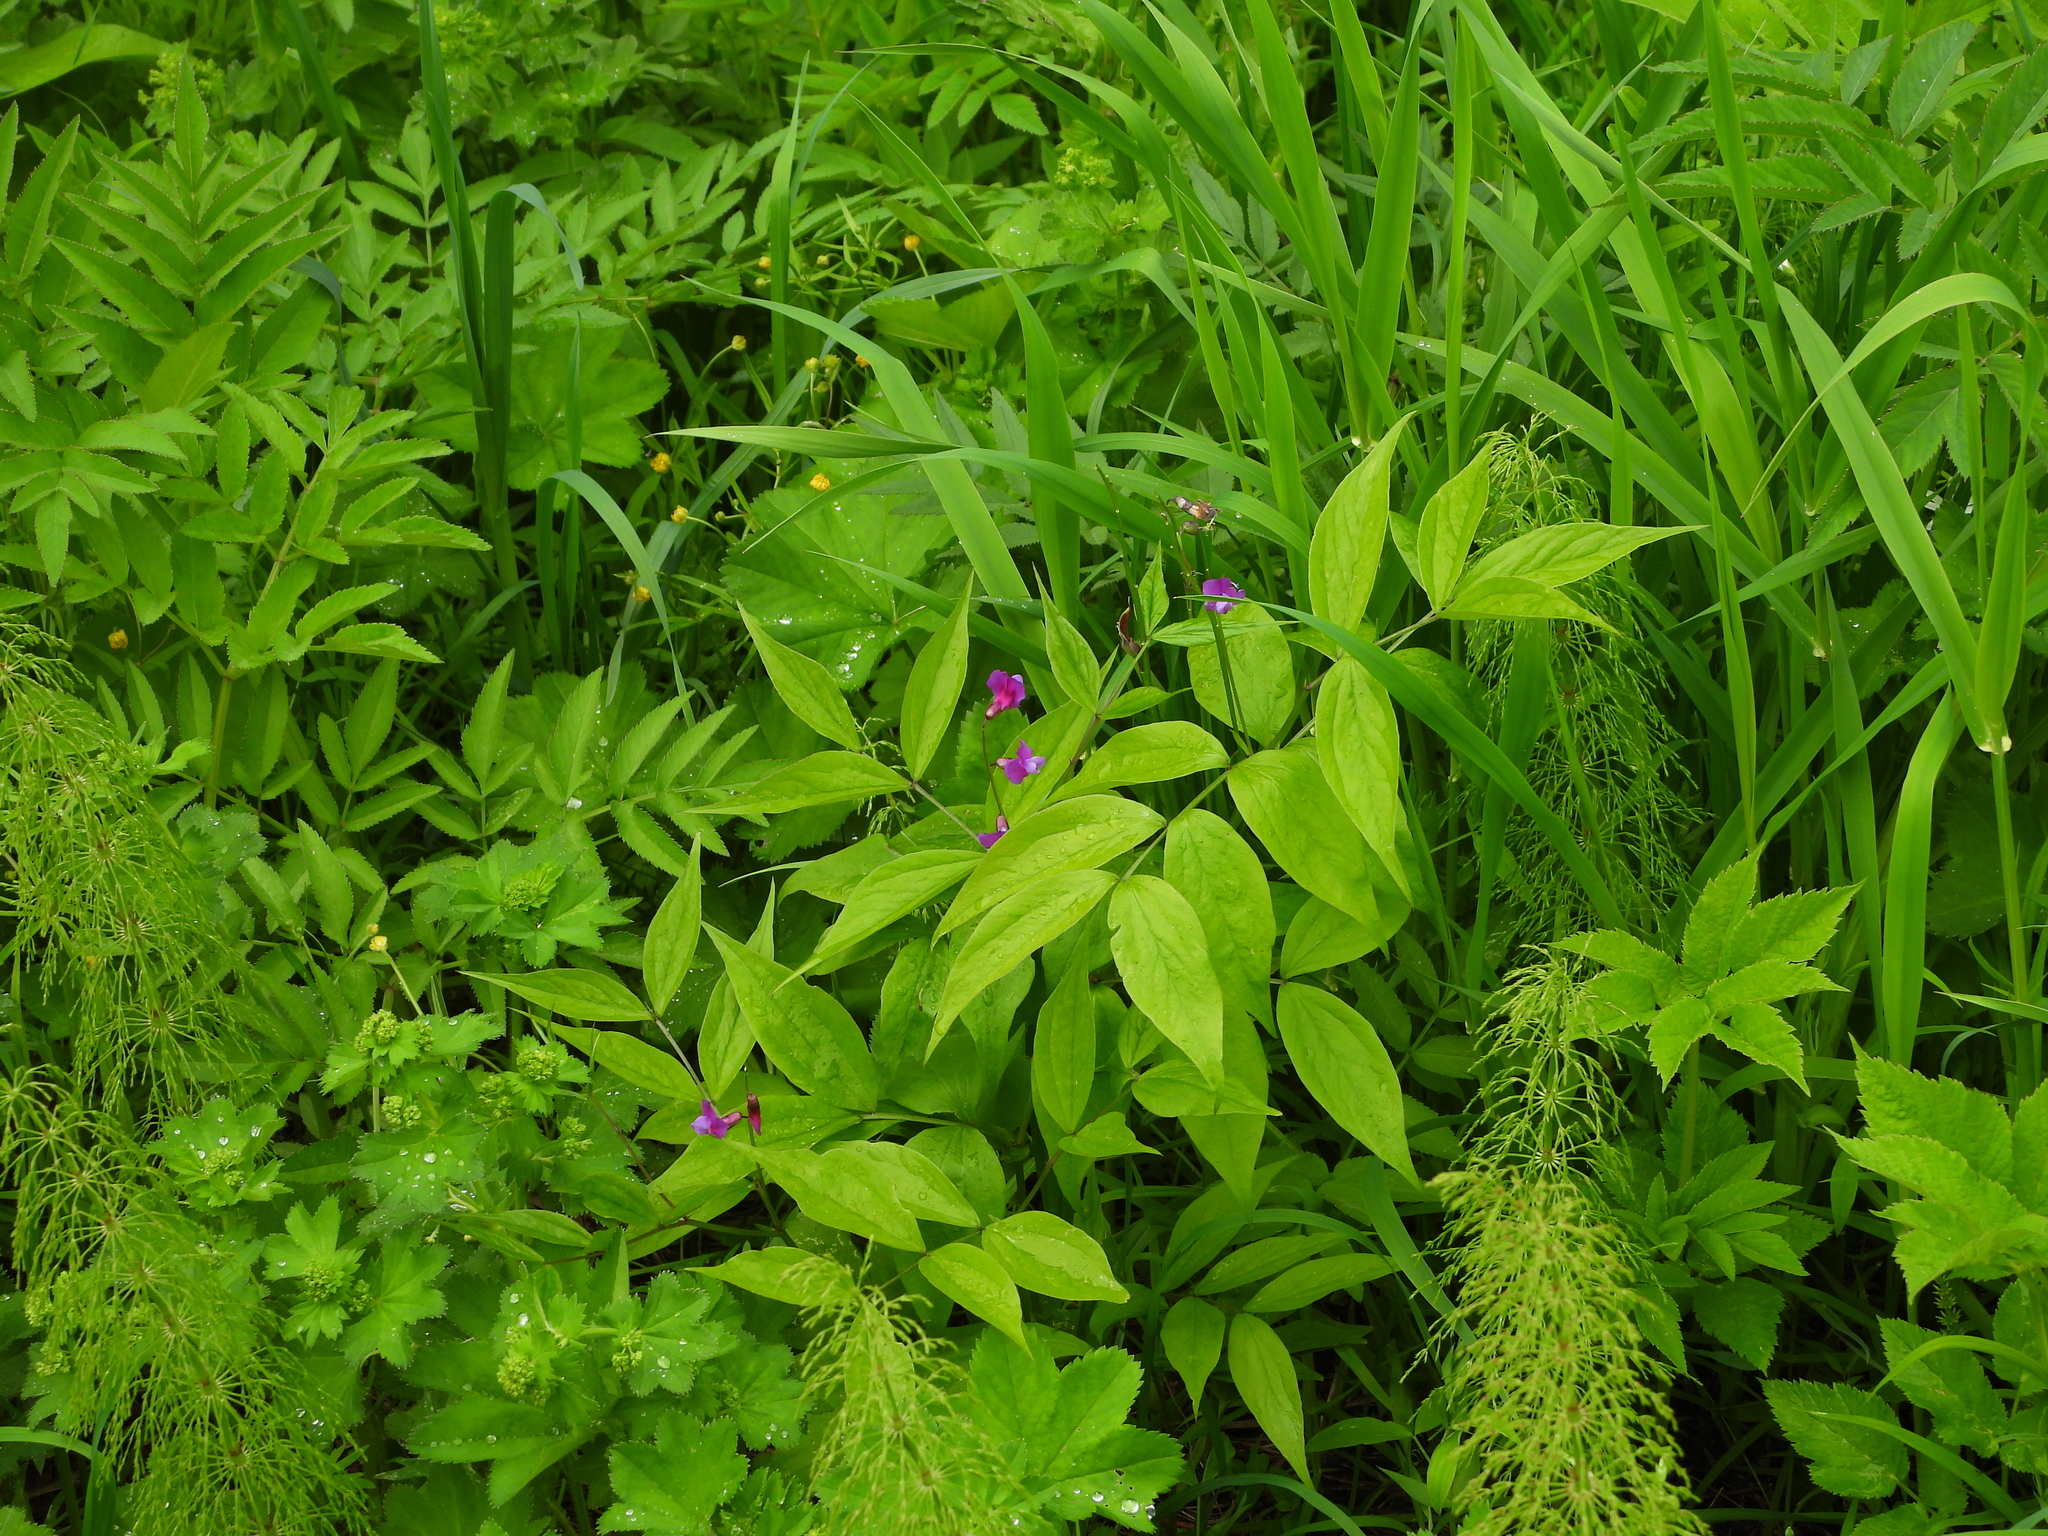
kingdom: Plantae
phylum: Tracheophyta
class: Magnoliopsida
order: Fabales
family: Fabaceae
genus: Lathyrus
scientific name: Lathyrus vernus
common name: Spring pea
